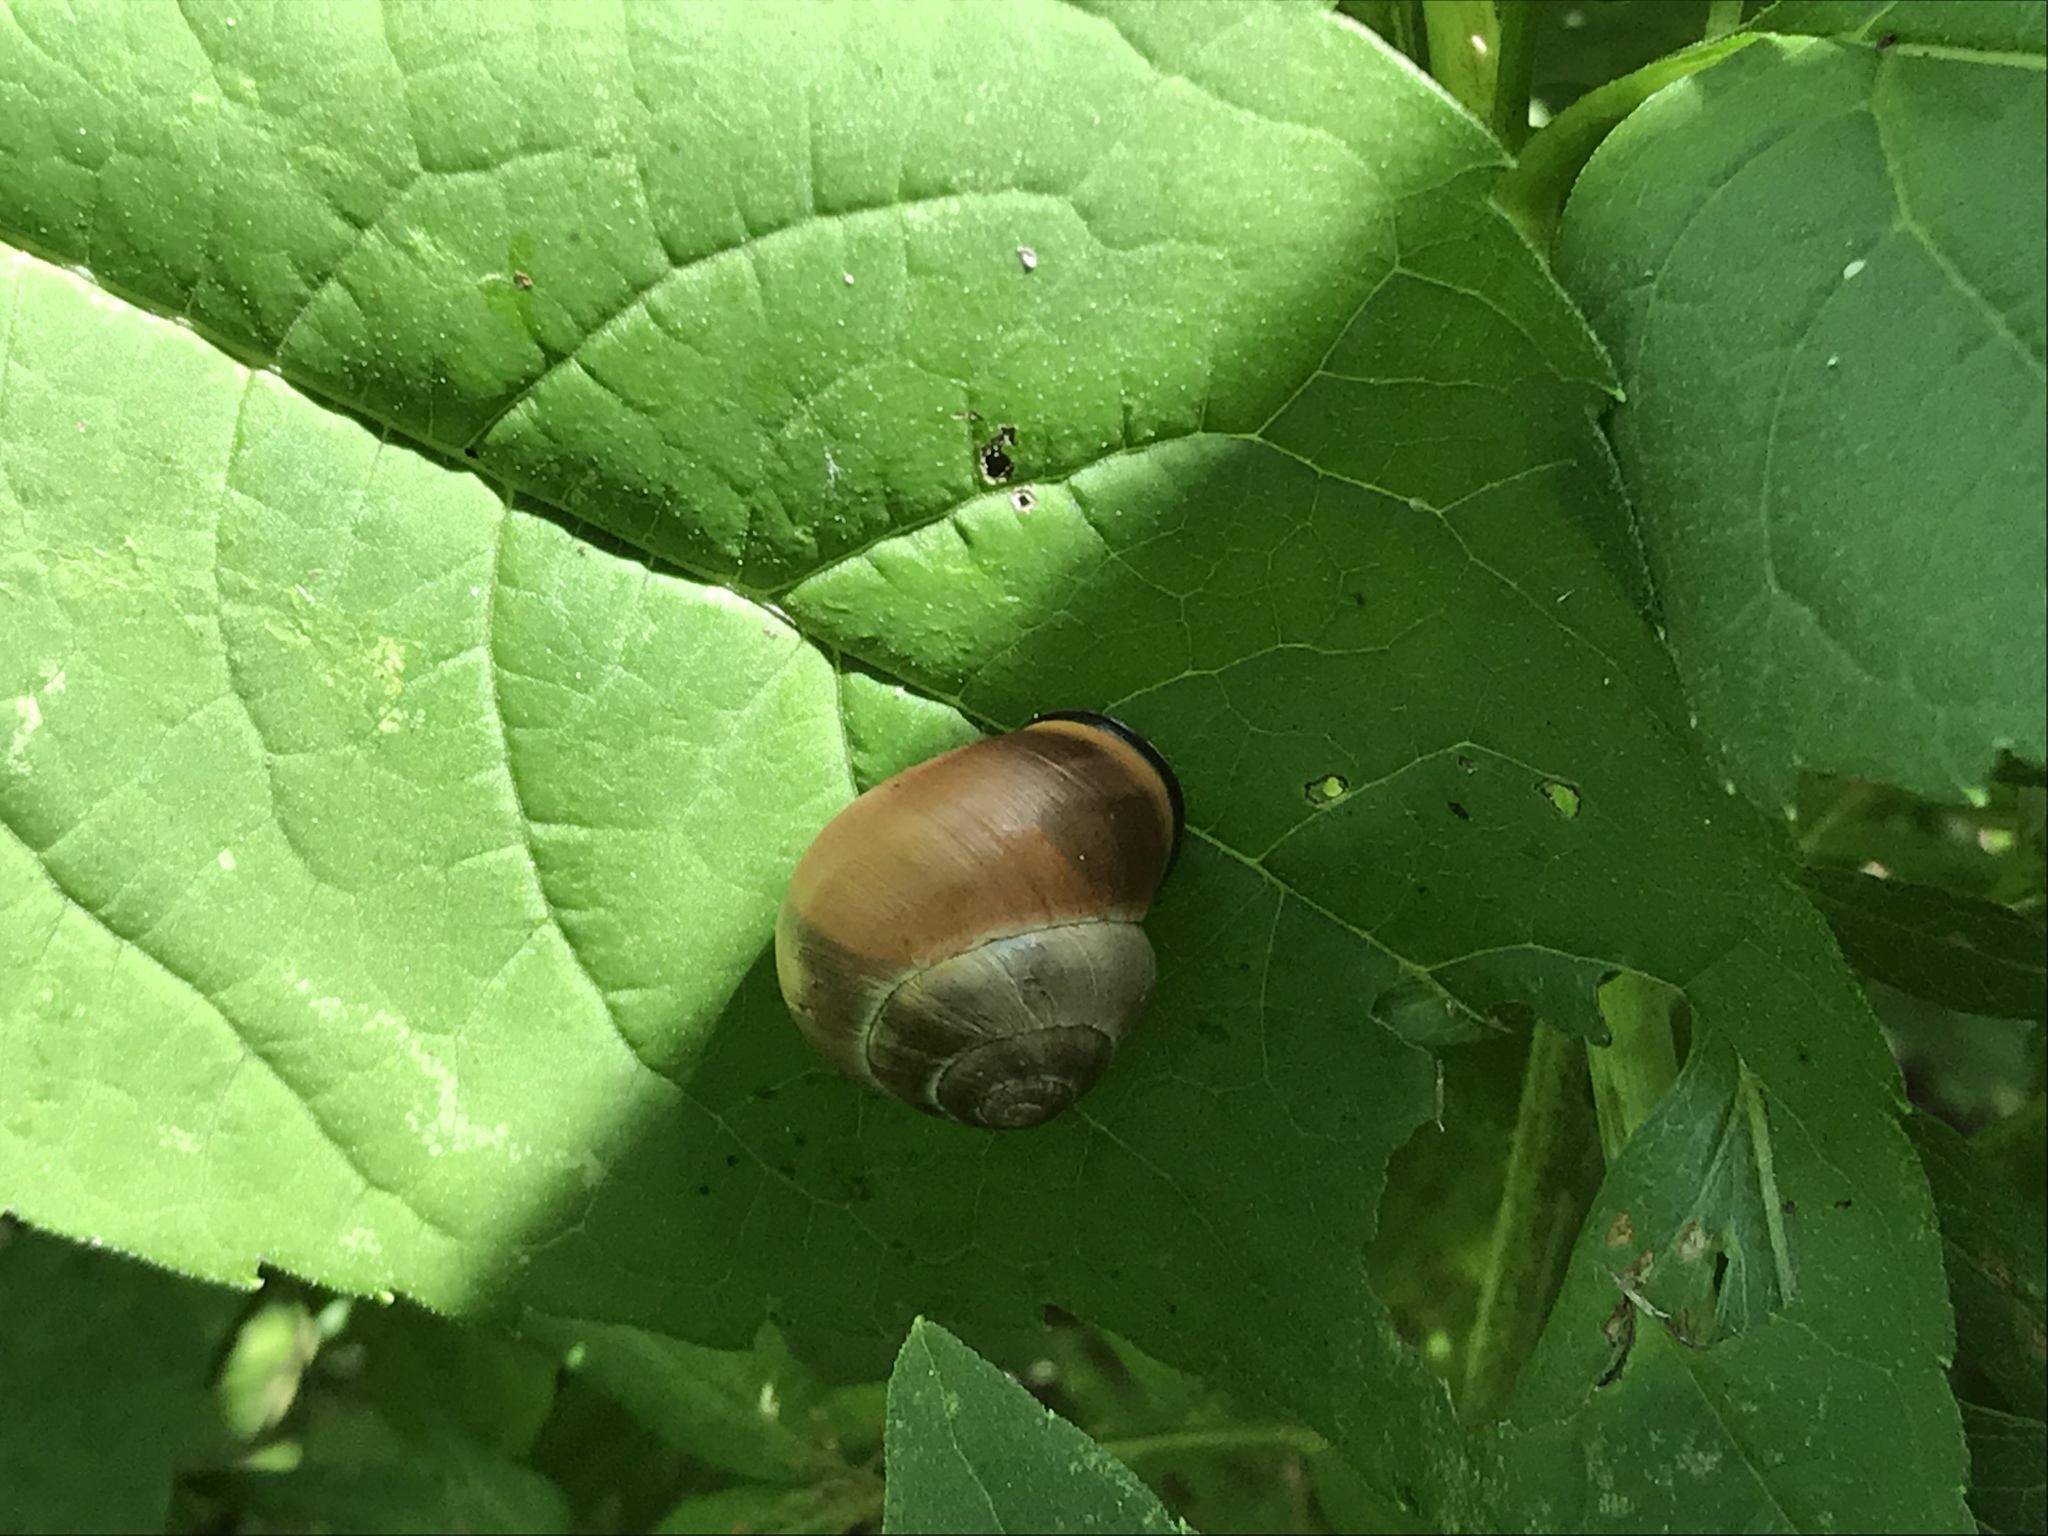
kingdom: Animalia
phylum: Mollusca
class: Gastropoda
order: Stylommatophora
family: Helicidae
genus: Cepaea
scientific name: Cepaea nemoralis
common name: Grovesnail
